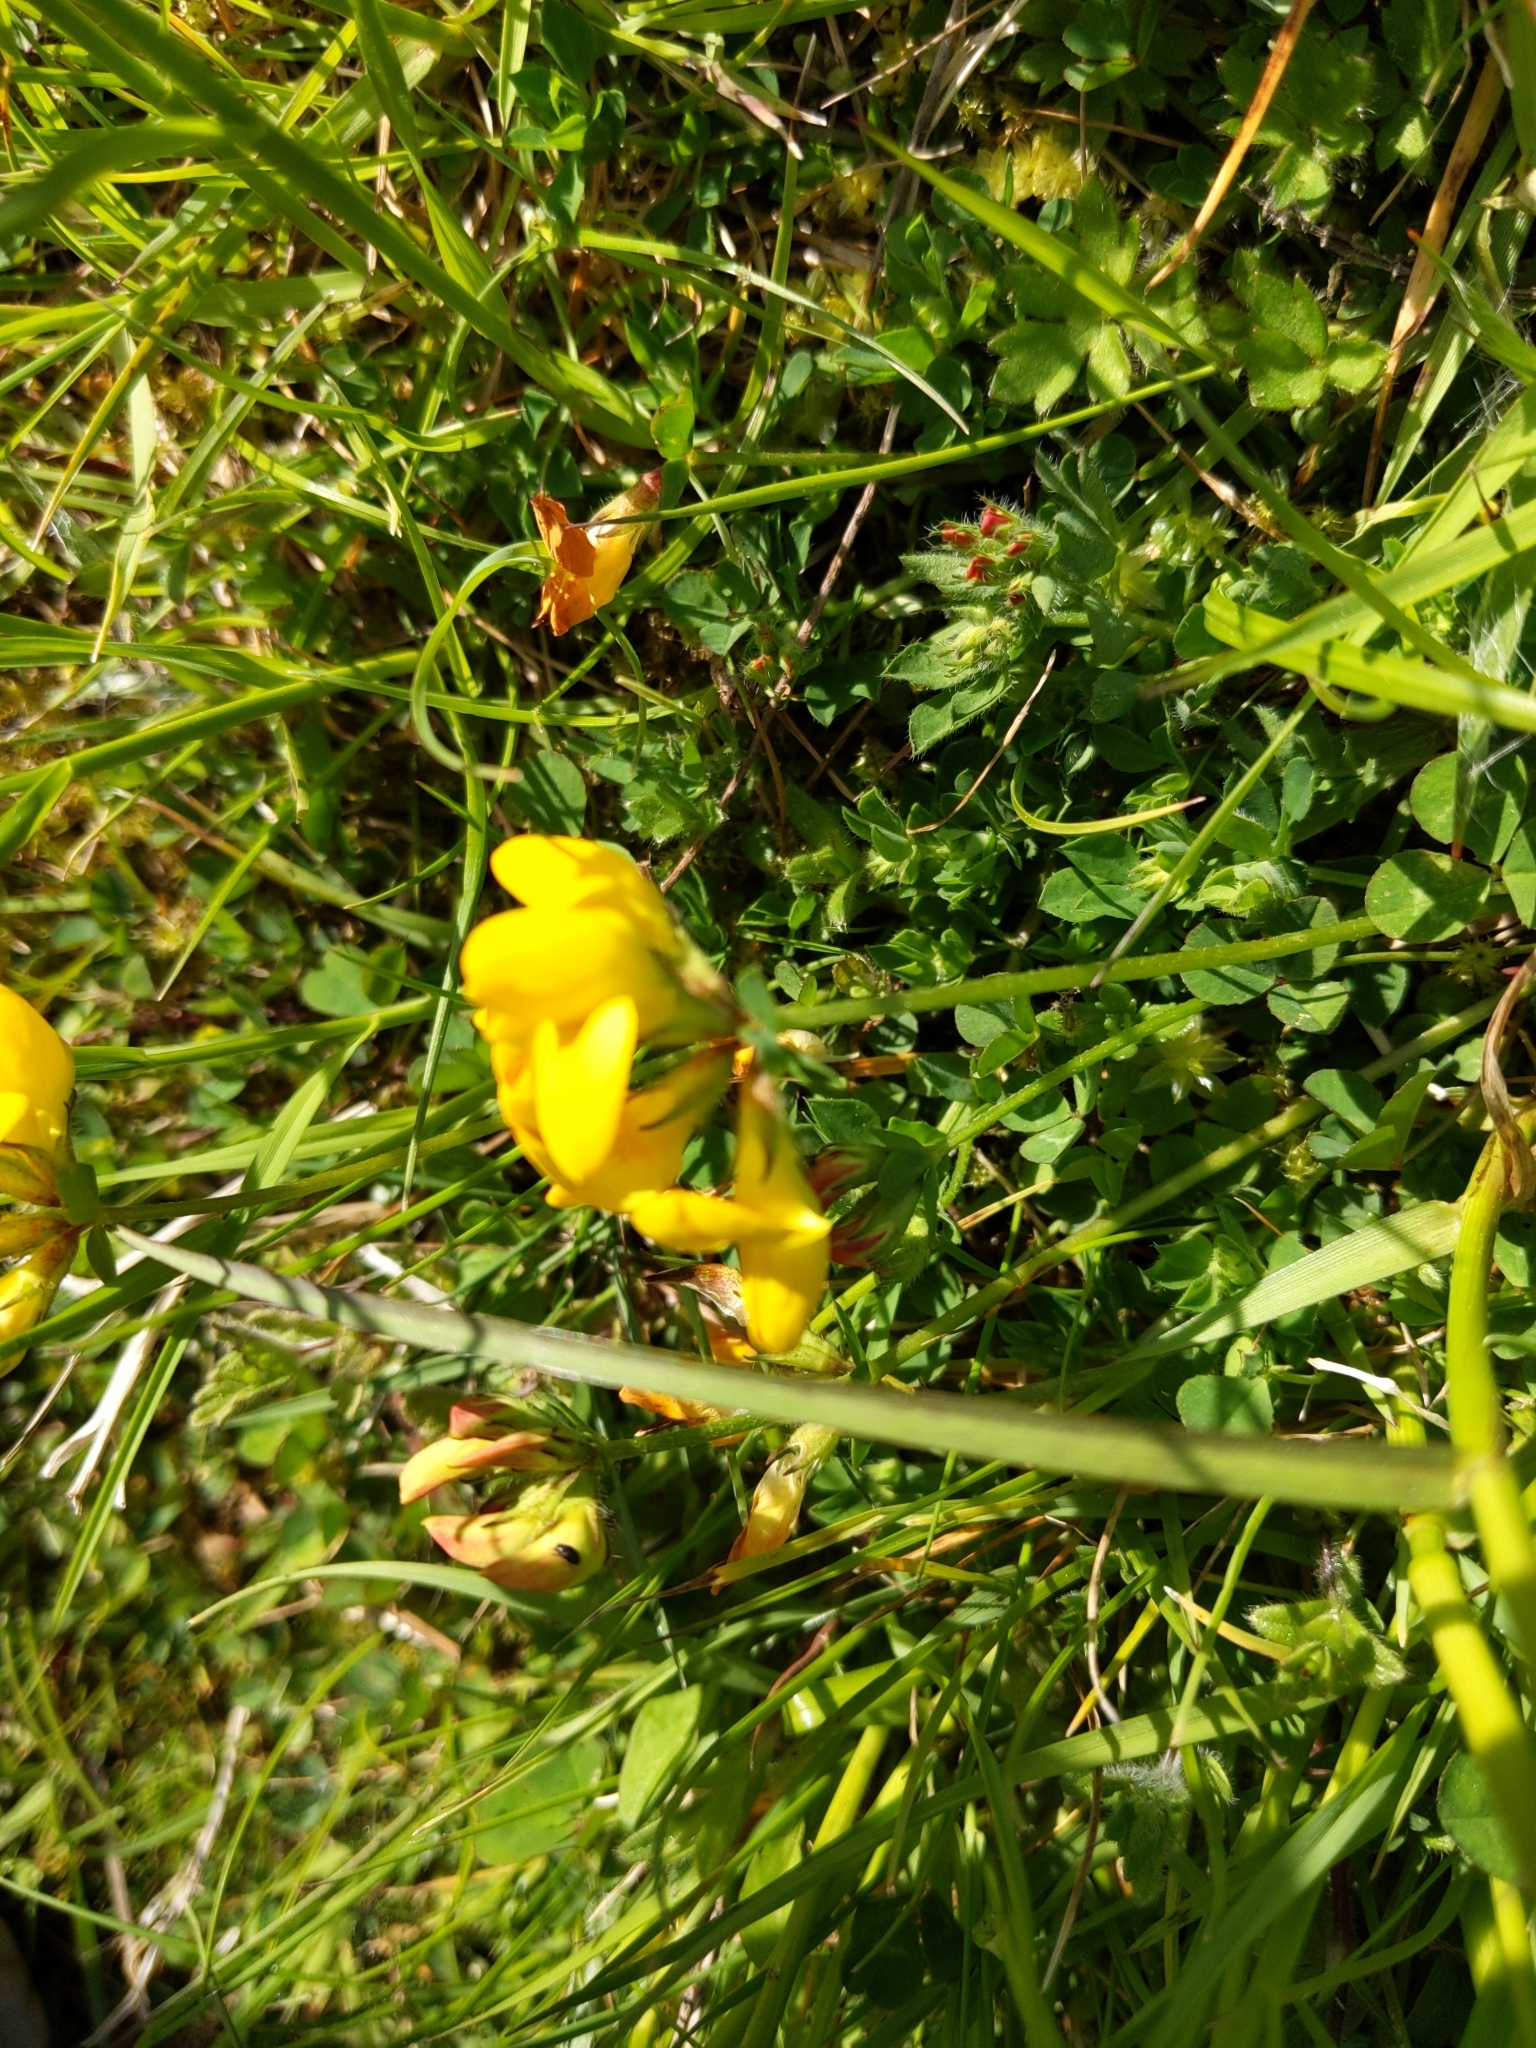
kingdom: Plantae
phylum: Tracheophyta
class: Magnoliopsida
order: Fabales
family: Fabaceae
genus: Lotus
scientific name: Lotus corniculatus
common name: Common bird's-foot-trefoil
